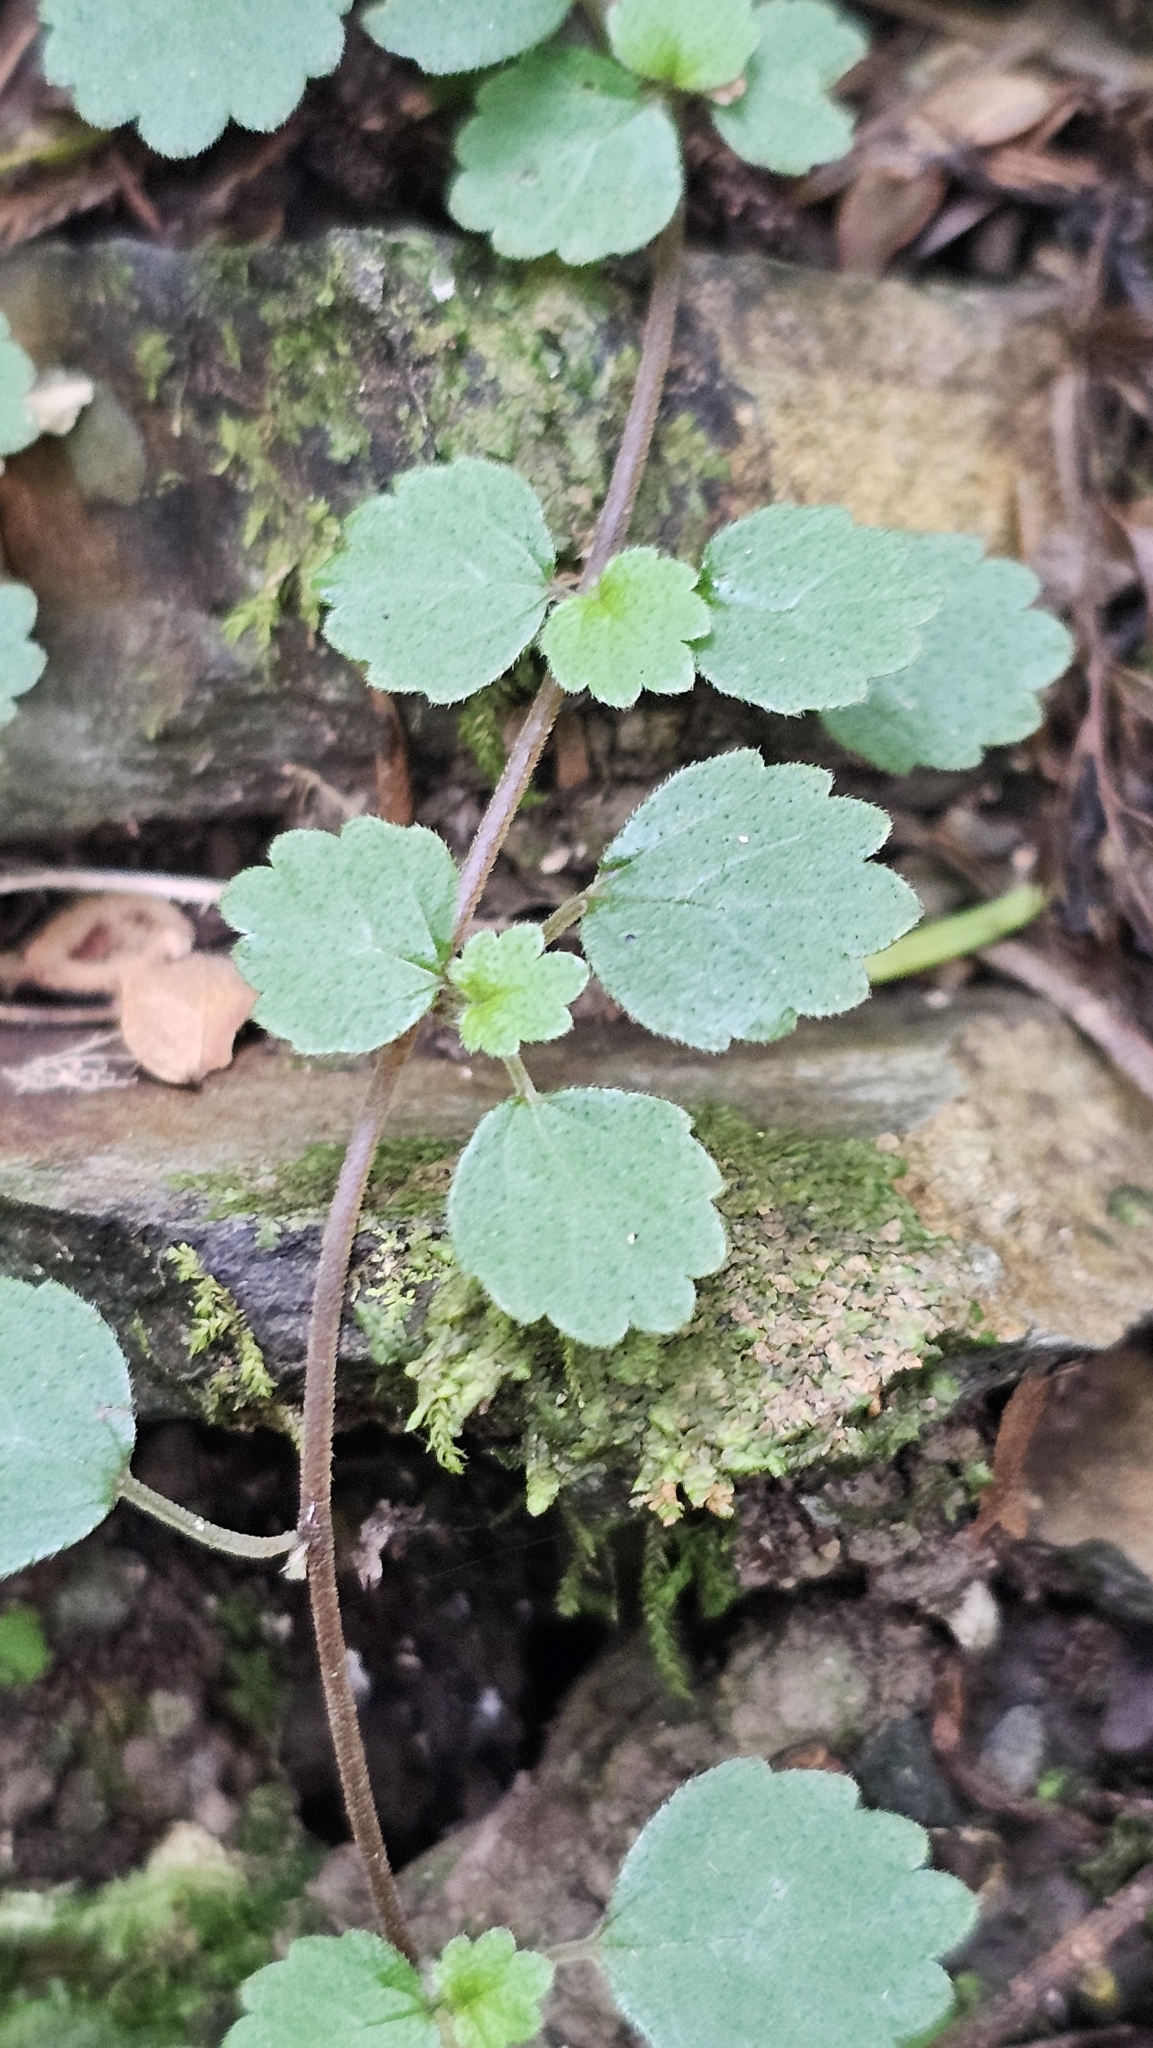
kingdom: Plantae
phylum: Tracheophyta
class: Magnoliopsida
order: Rosales
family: Urticaceae
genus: Australina
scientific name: Australina pusilla
